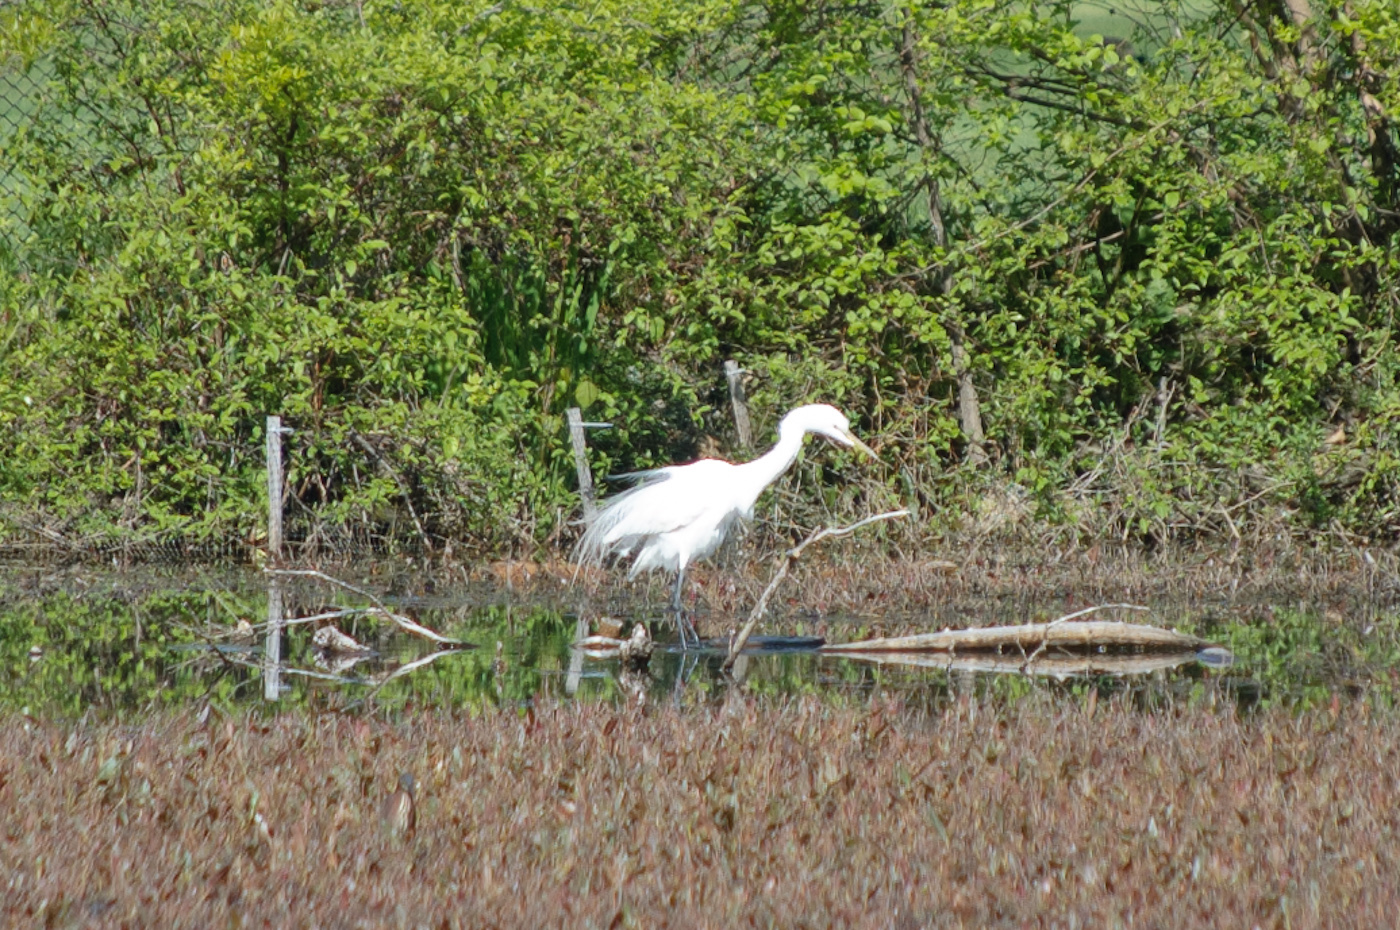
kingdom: Animalia
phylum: Chordata
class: Aves
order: Pelecaniformes
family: Ardeidae
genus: Ardea
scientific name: Ardea alba
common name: Great egret
